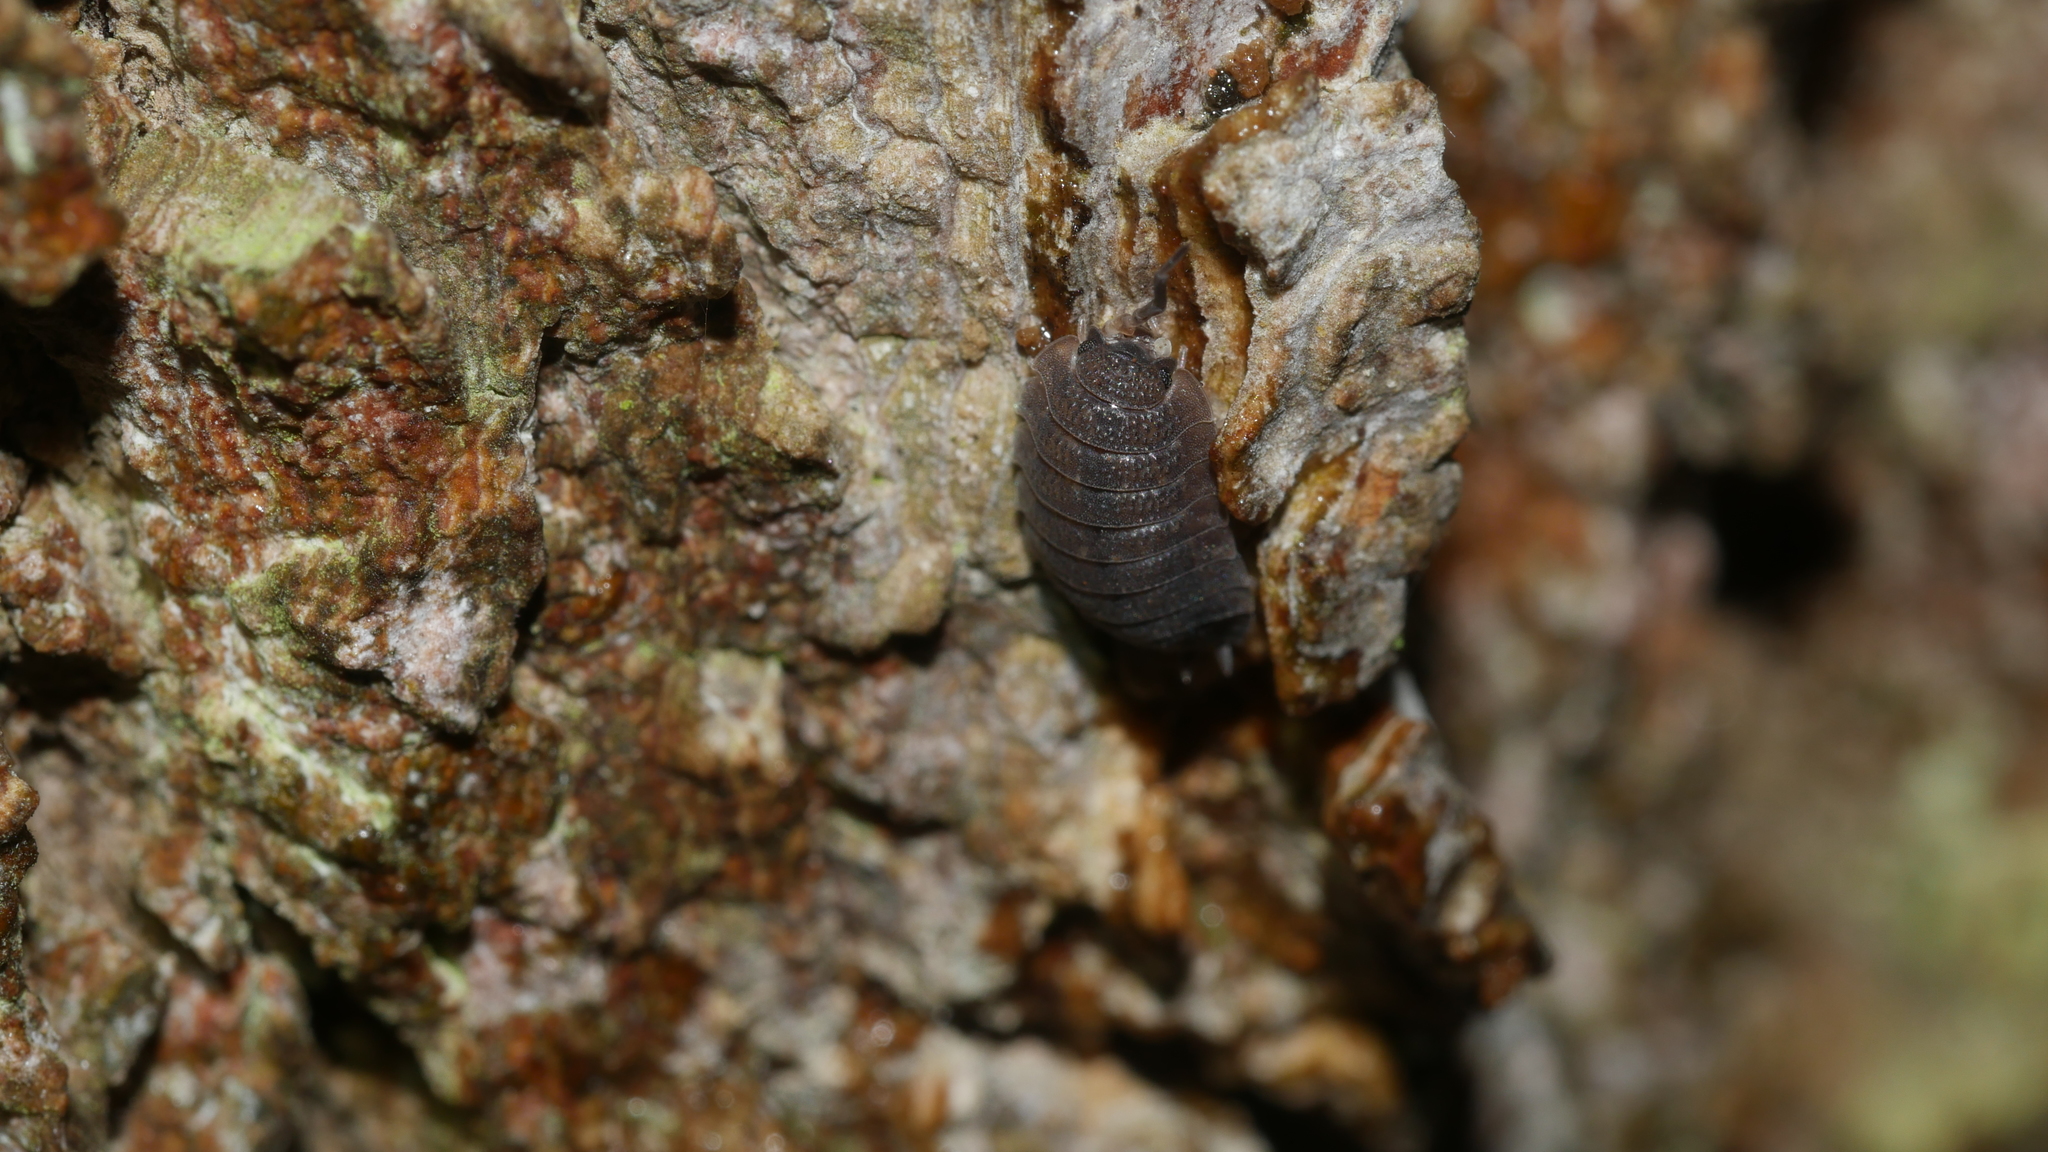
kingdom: Animalia
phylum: Arthropoda
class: Malacostraca
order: Isopoda
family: Porcellionidae
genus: Porcellio
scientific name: Porcellio scaber
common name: Common rough woodlouse
